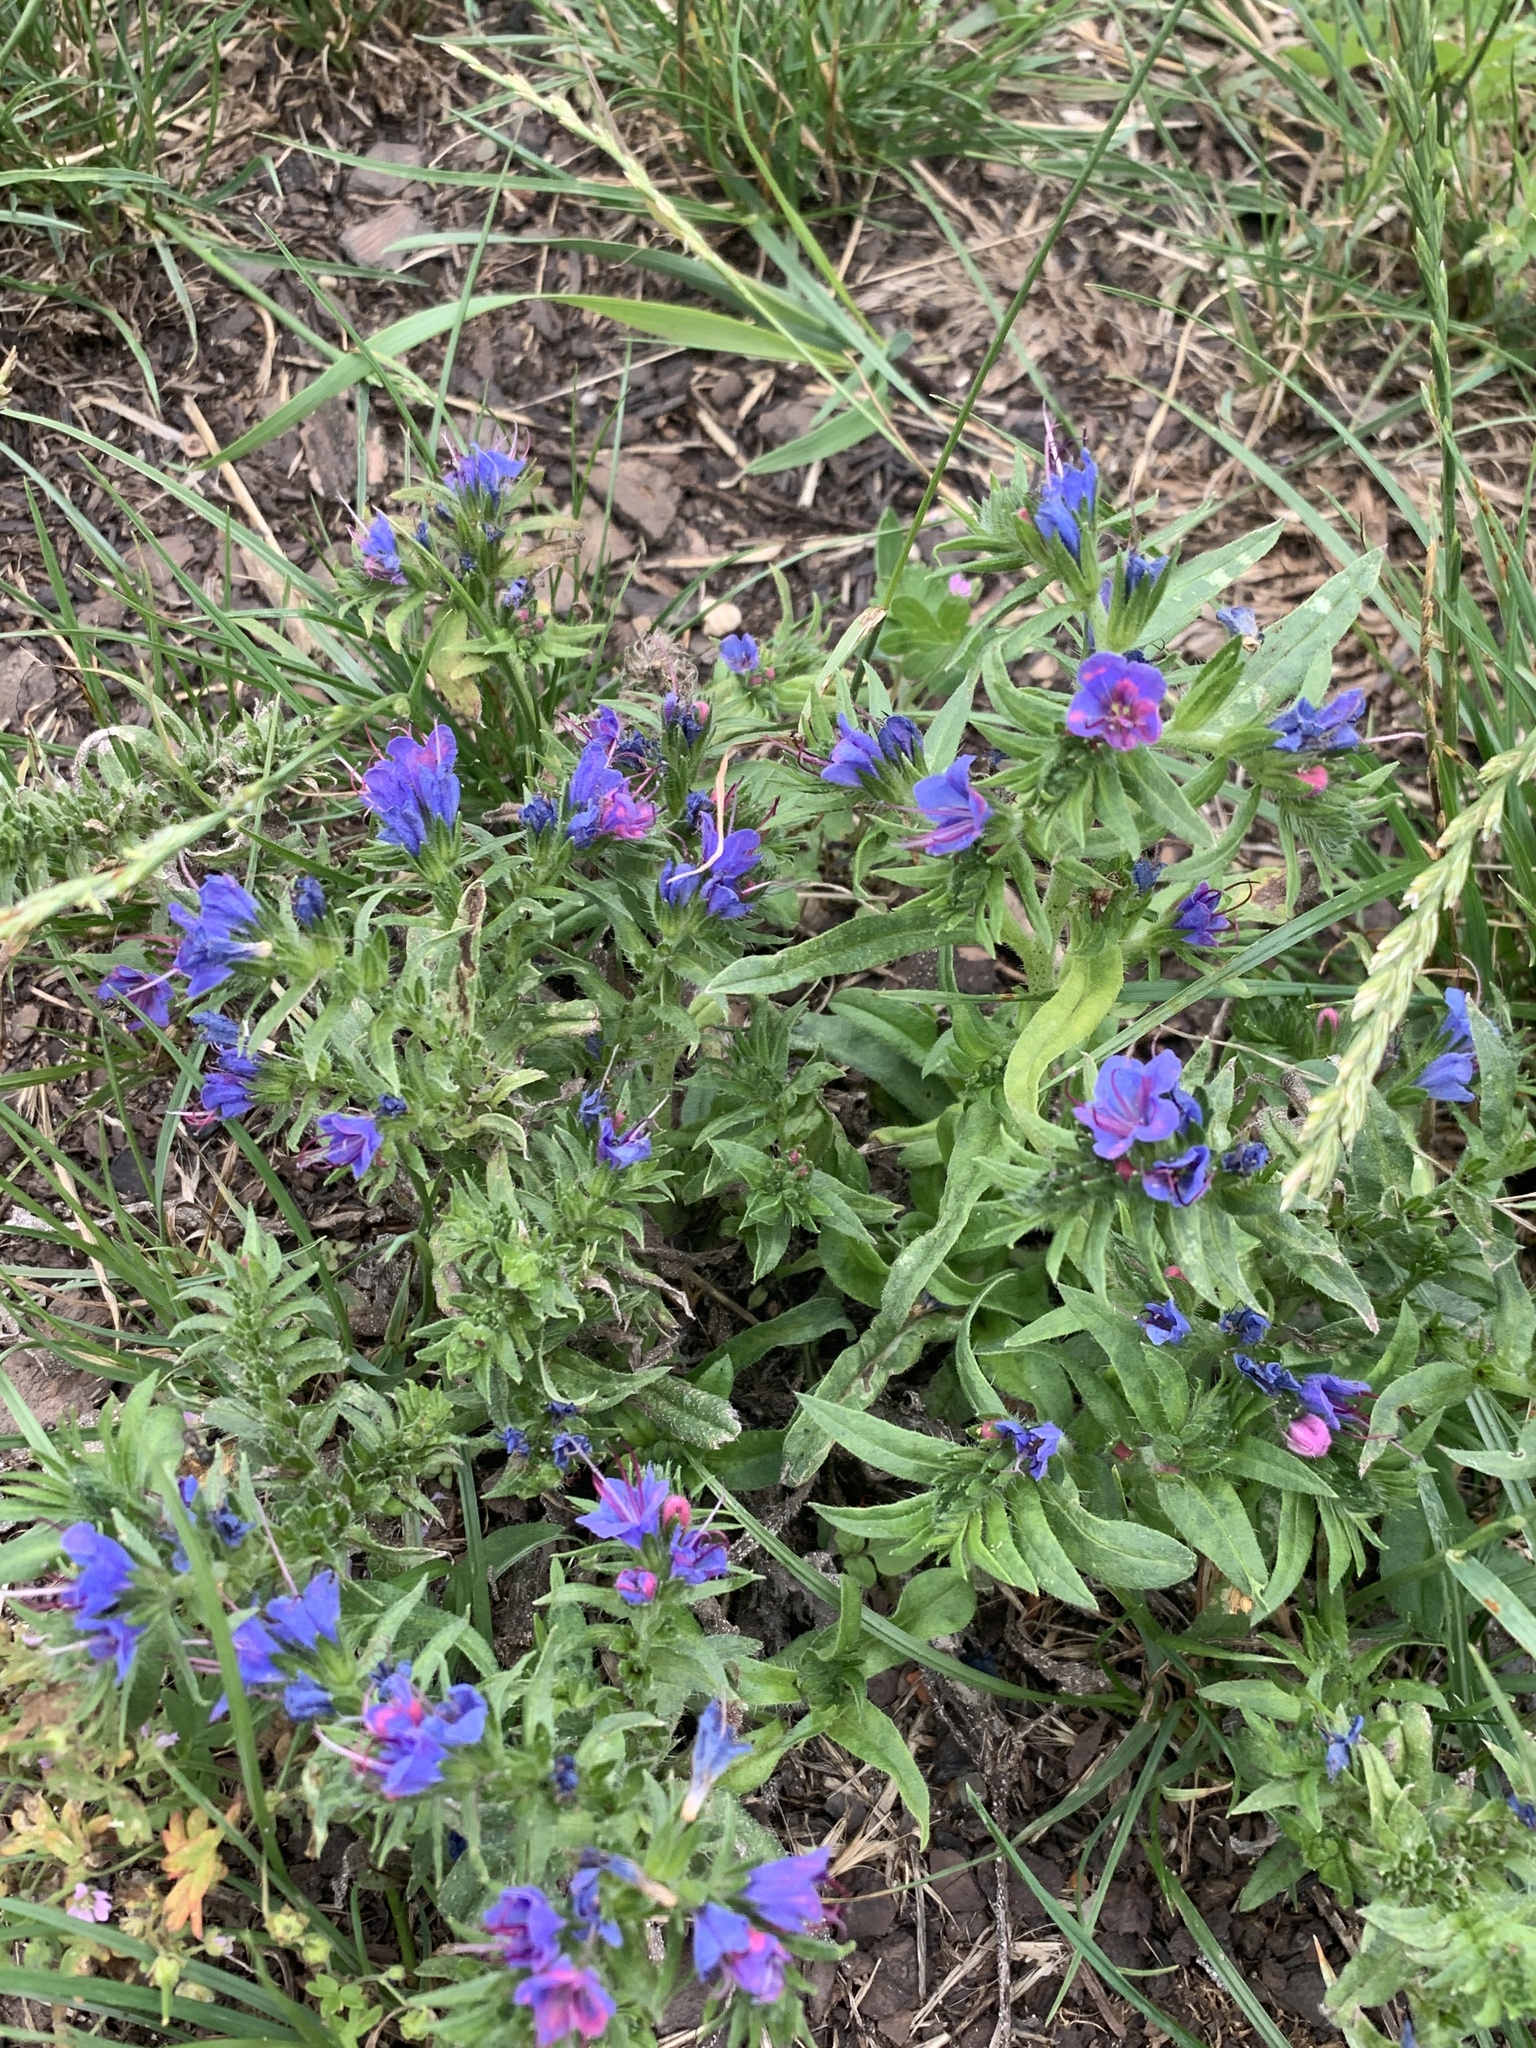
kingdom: Plantae
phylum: Tracheophyta
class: Magnoliopsida
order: Boraginales
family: Boraginaceae
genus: Echium
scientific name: Echium vulgare
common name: Common viper's bugloss
